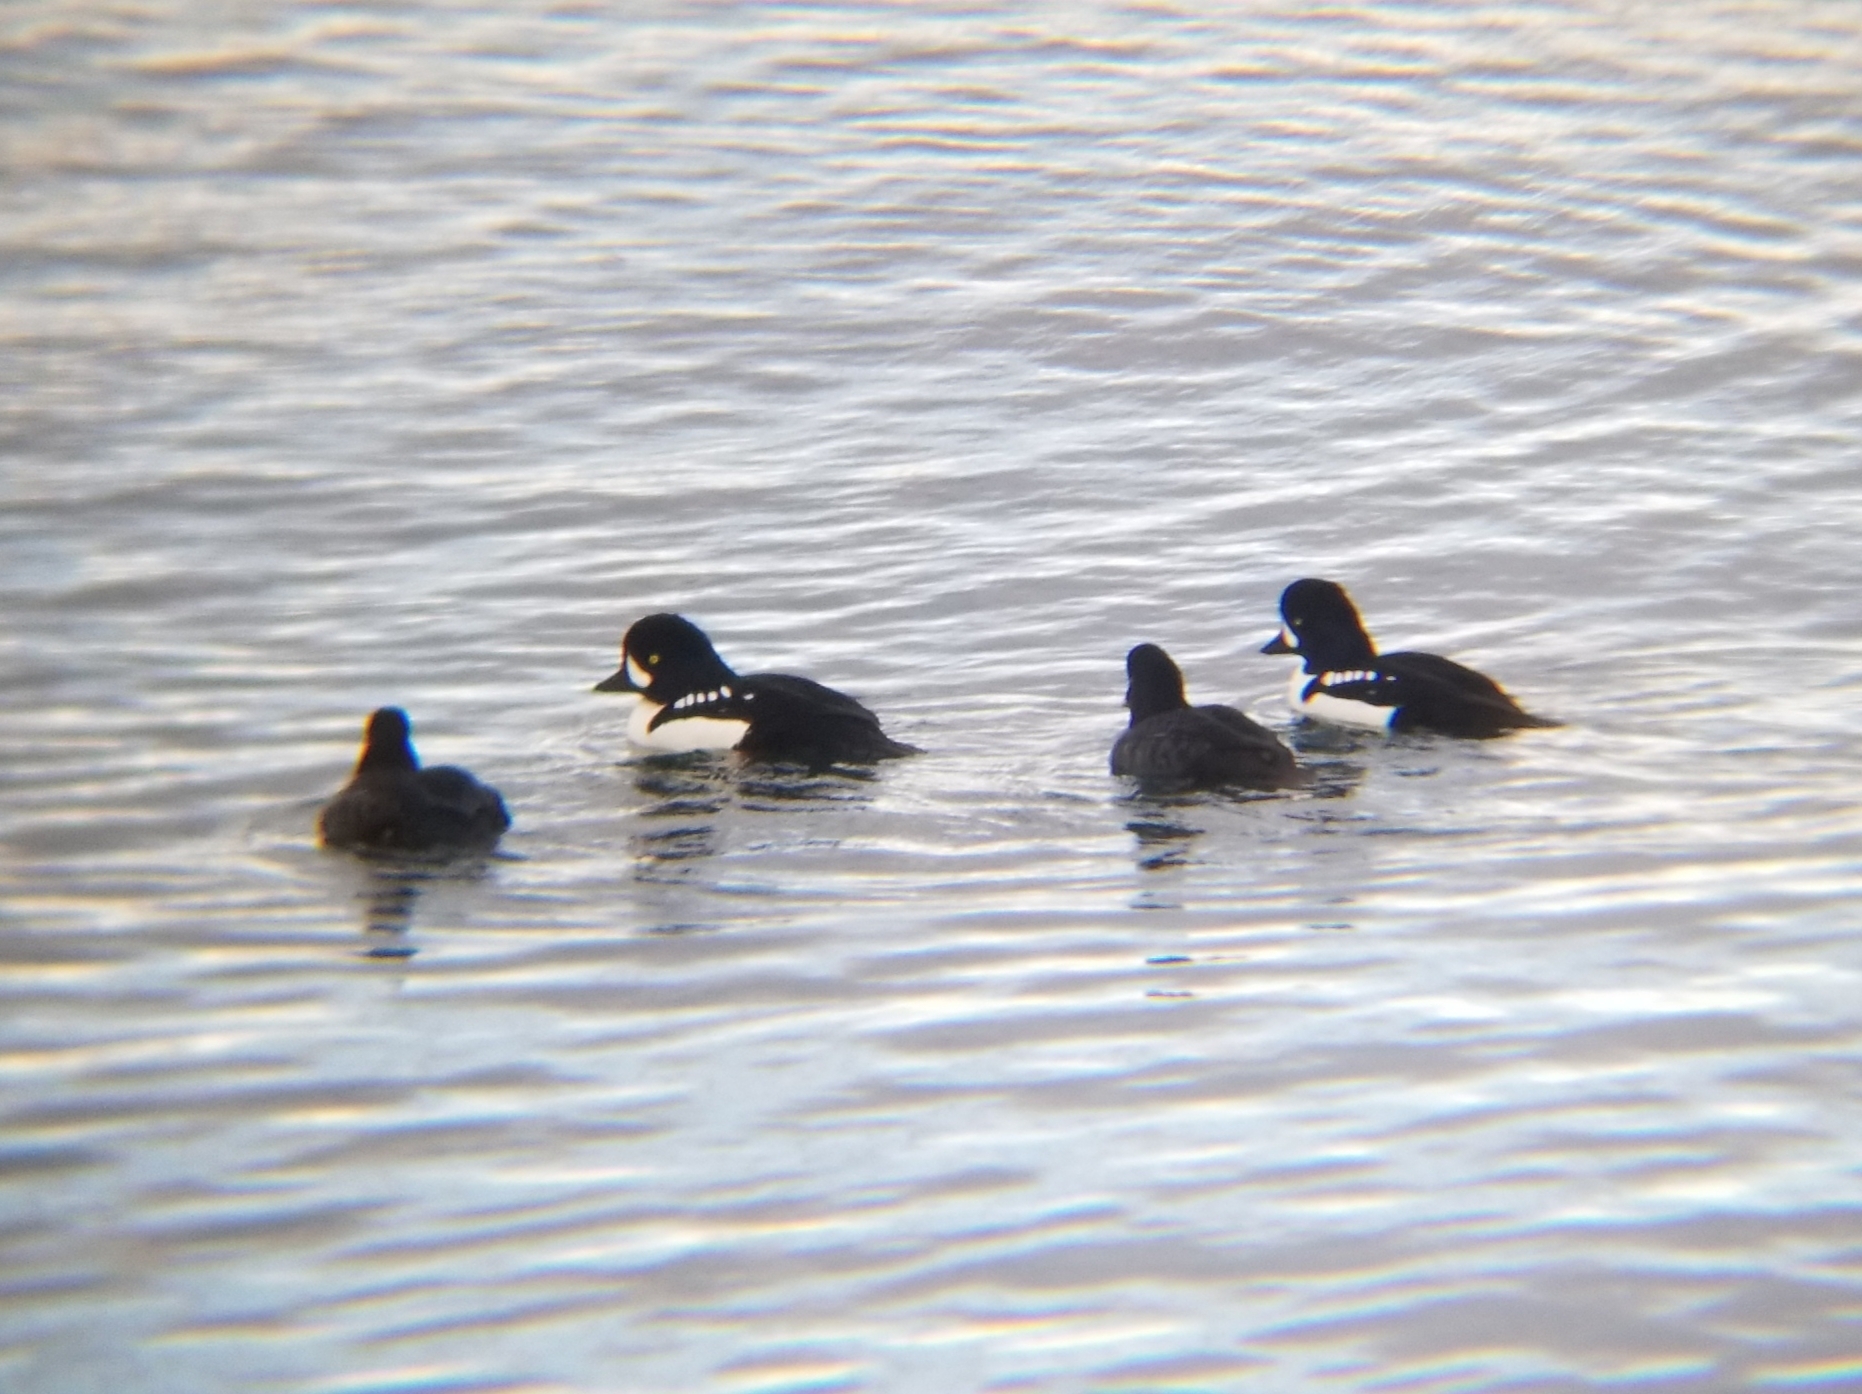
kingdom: Animalia
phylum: Chordata
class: Aves
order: Anseriformes
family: Anatidae
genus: Bucephala
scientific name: Bucephala islandica
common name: Barrow's goldeneye
